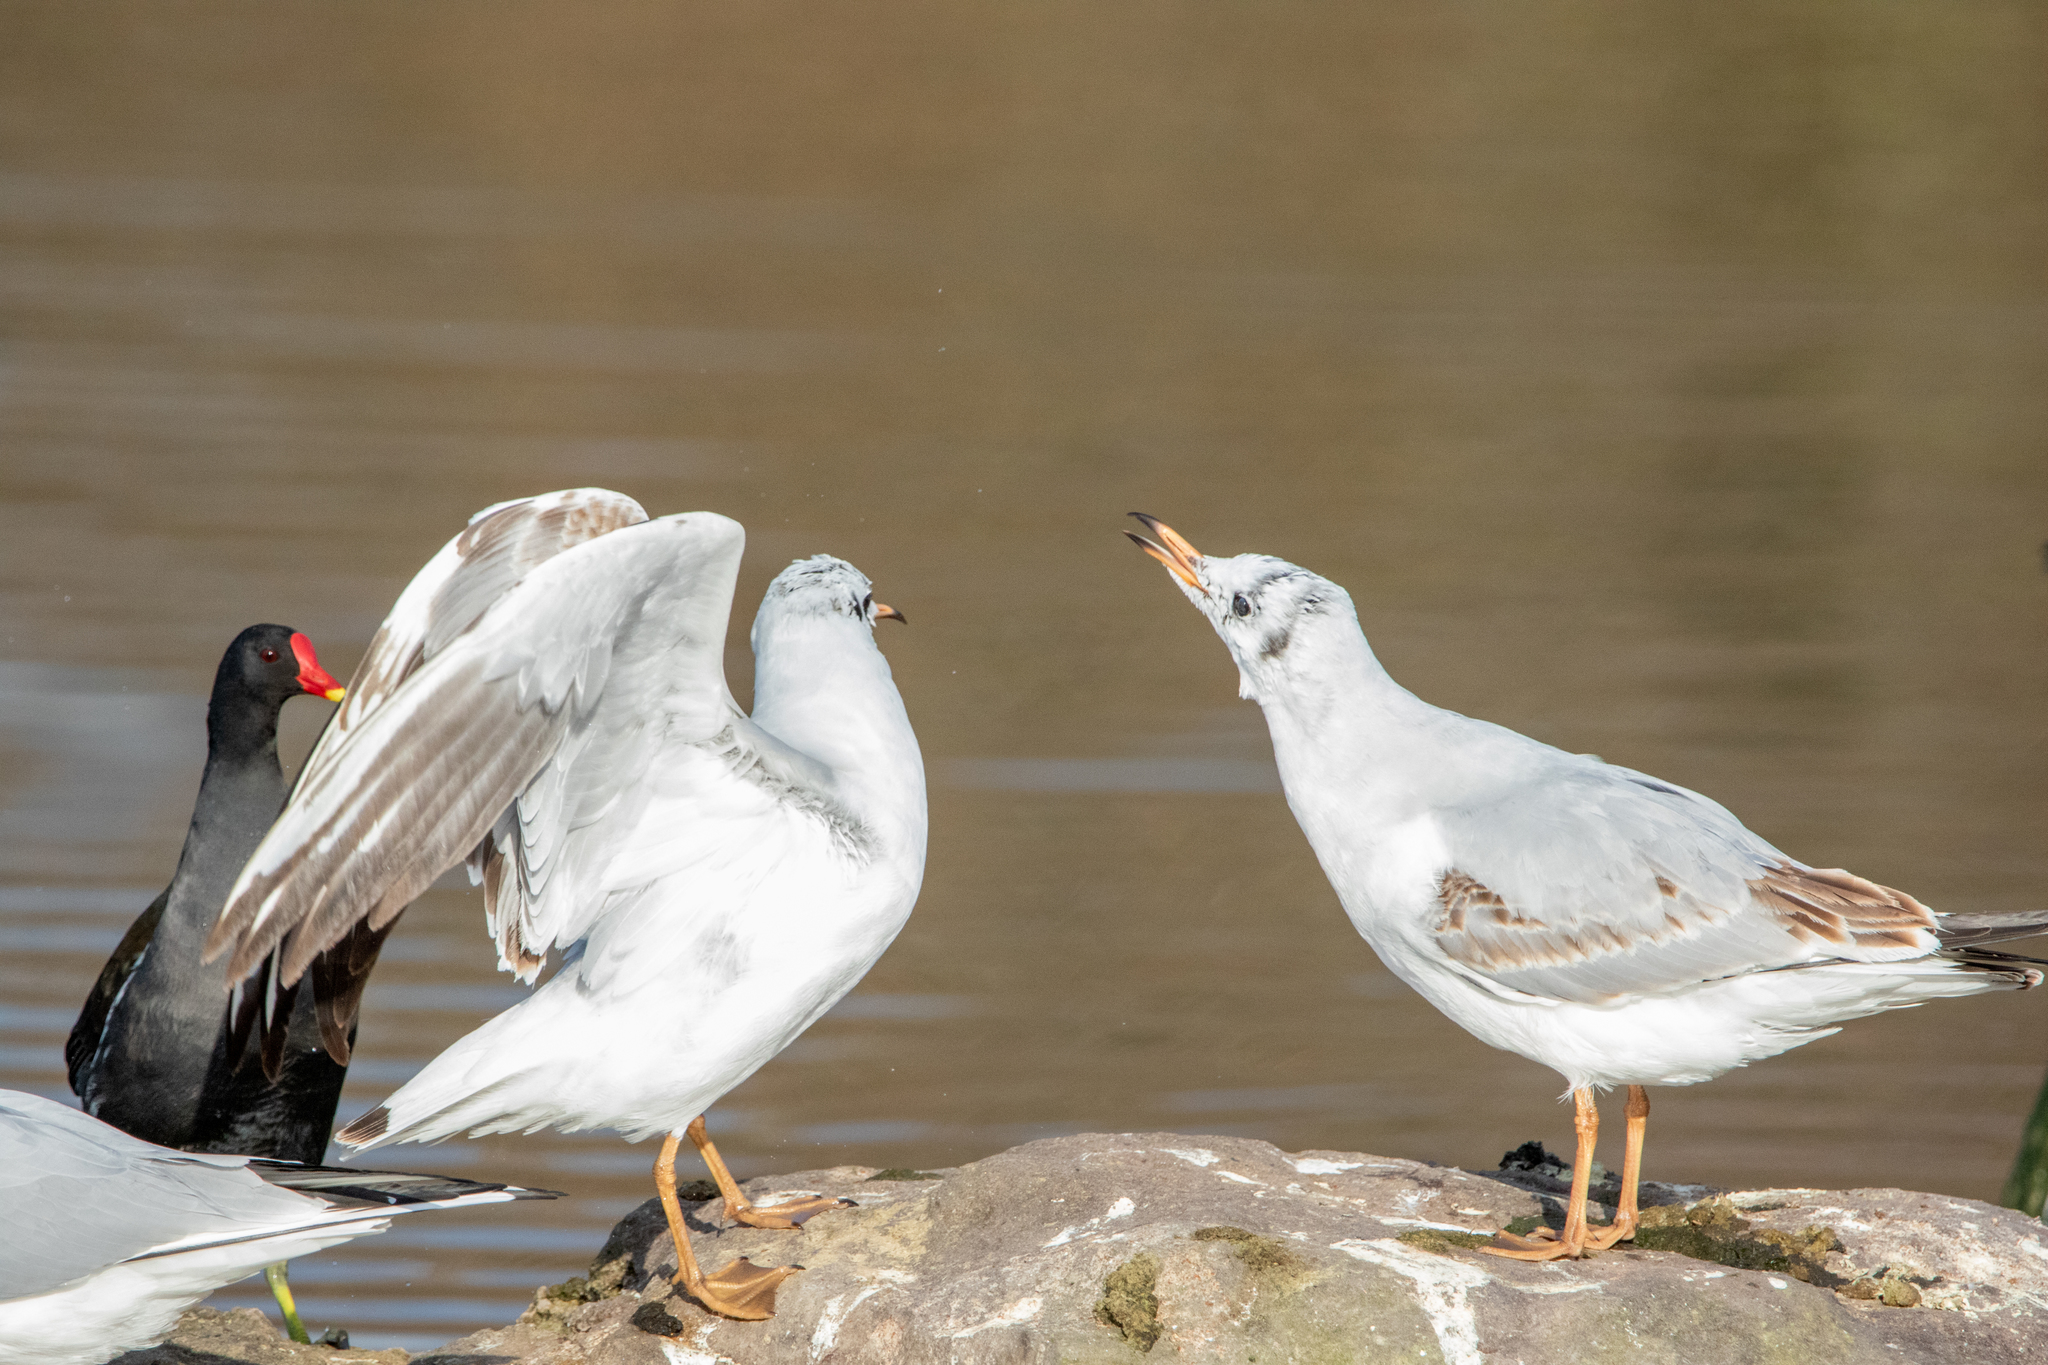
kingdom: Animalia
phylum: Chordata
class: Aves
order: Gruiformes
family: Rallidae
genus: Gallinula
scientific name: Gallinula chloropus
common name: Common moorhen
